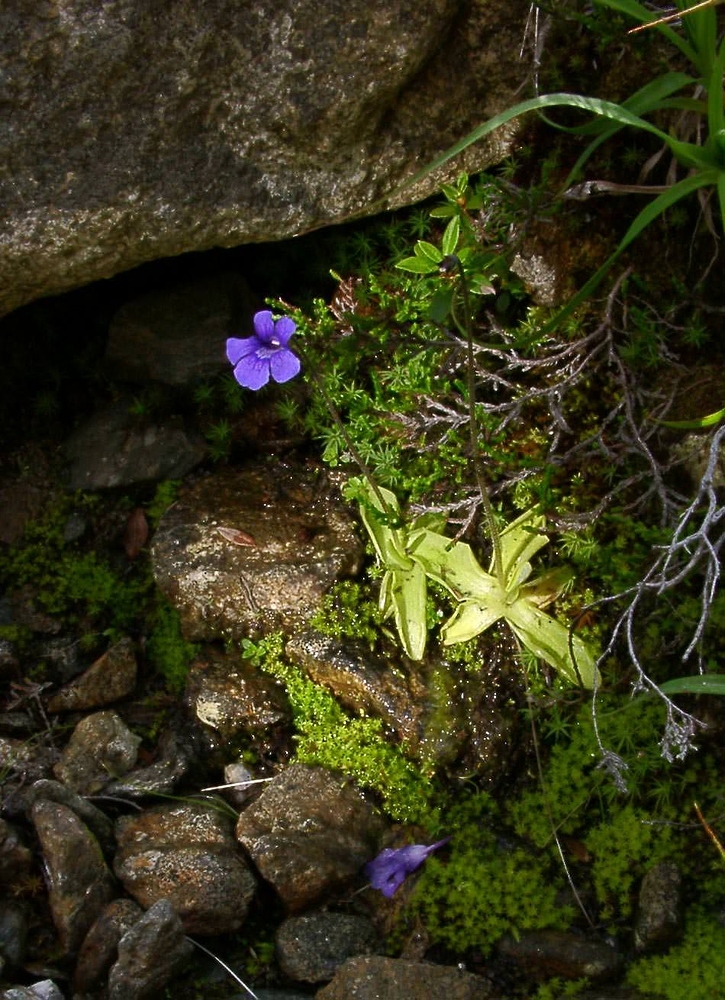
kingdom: Plantae
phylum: Tracheophyta
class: Magnoliopsida
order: Lamiales
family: Lentibulariaceae
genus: Pinguicula
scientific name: Pinguicula grandiflora
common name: Large-flowered butterwort
